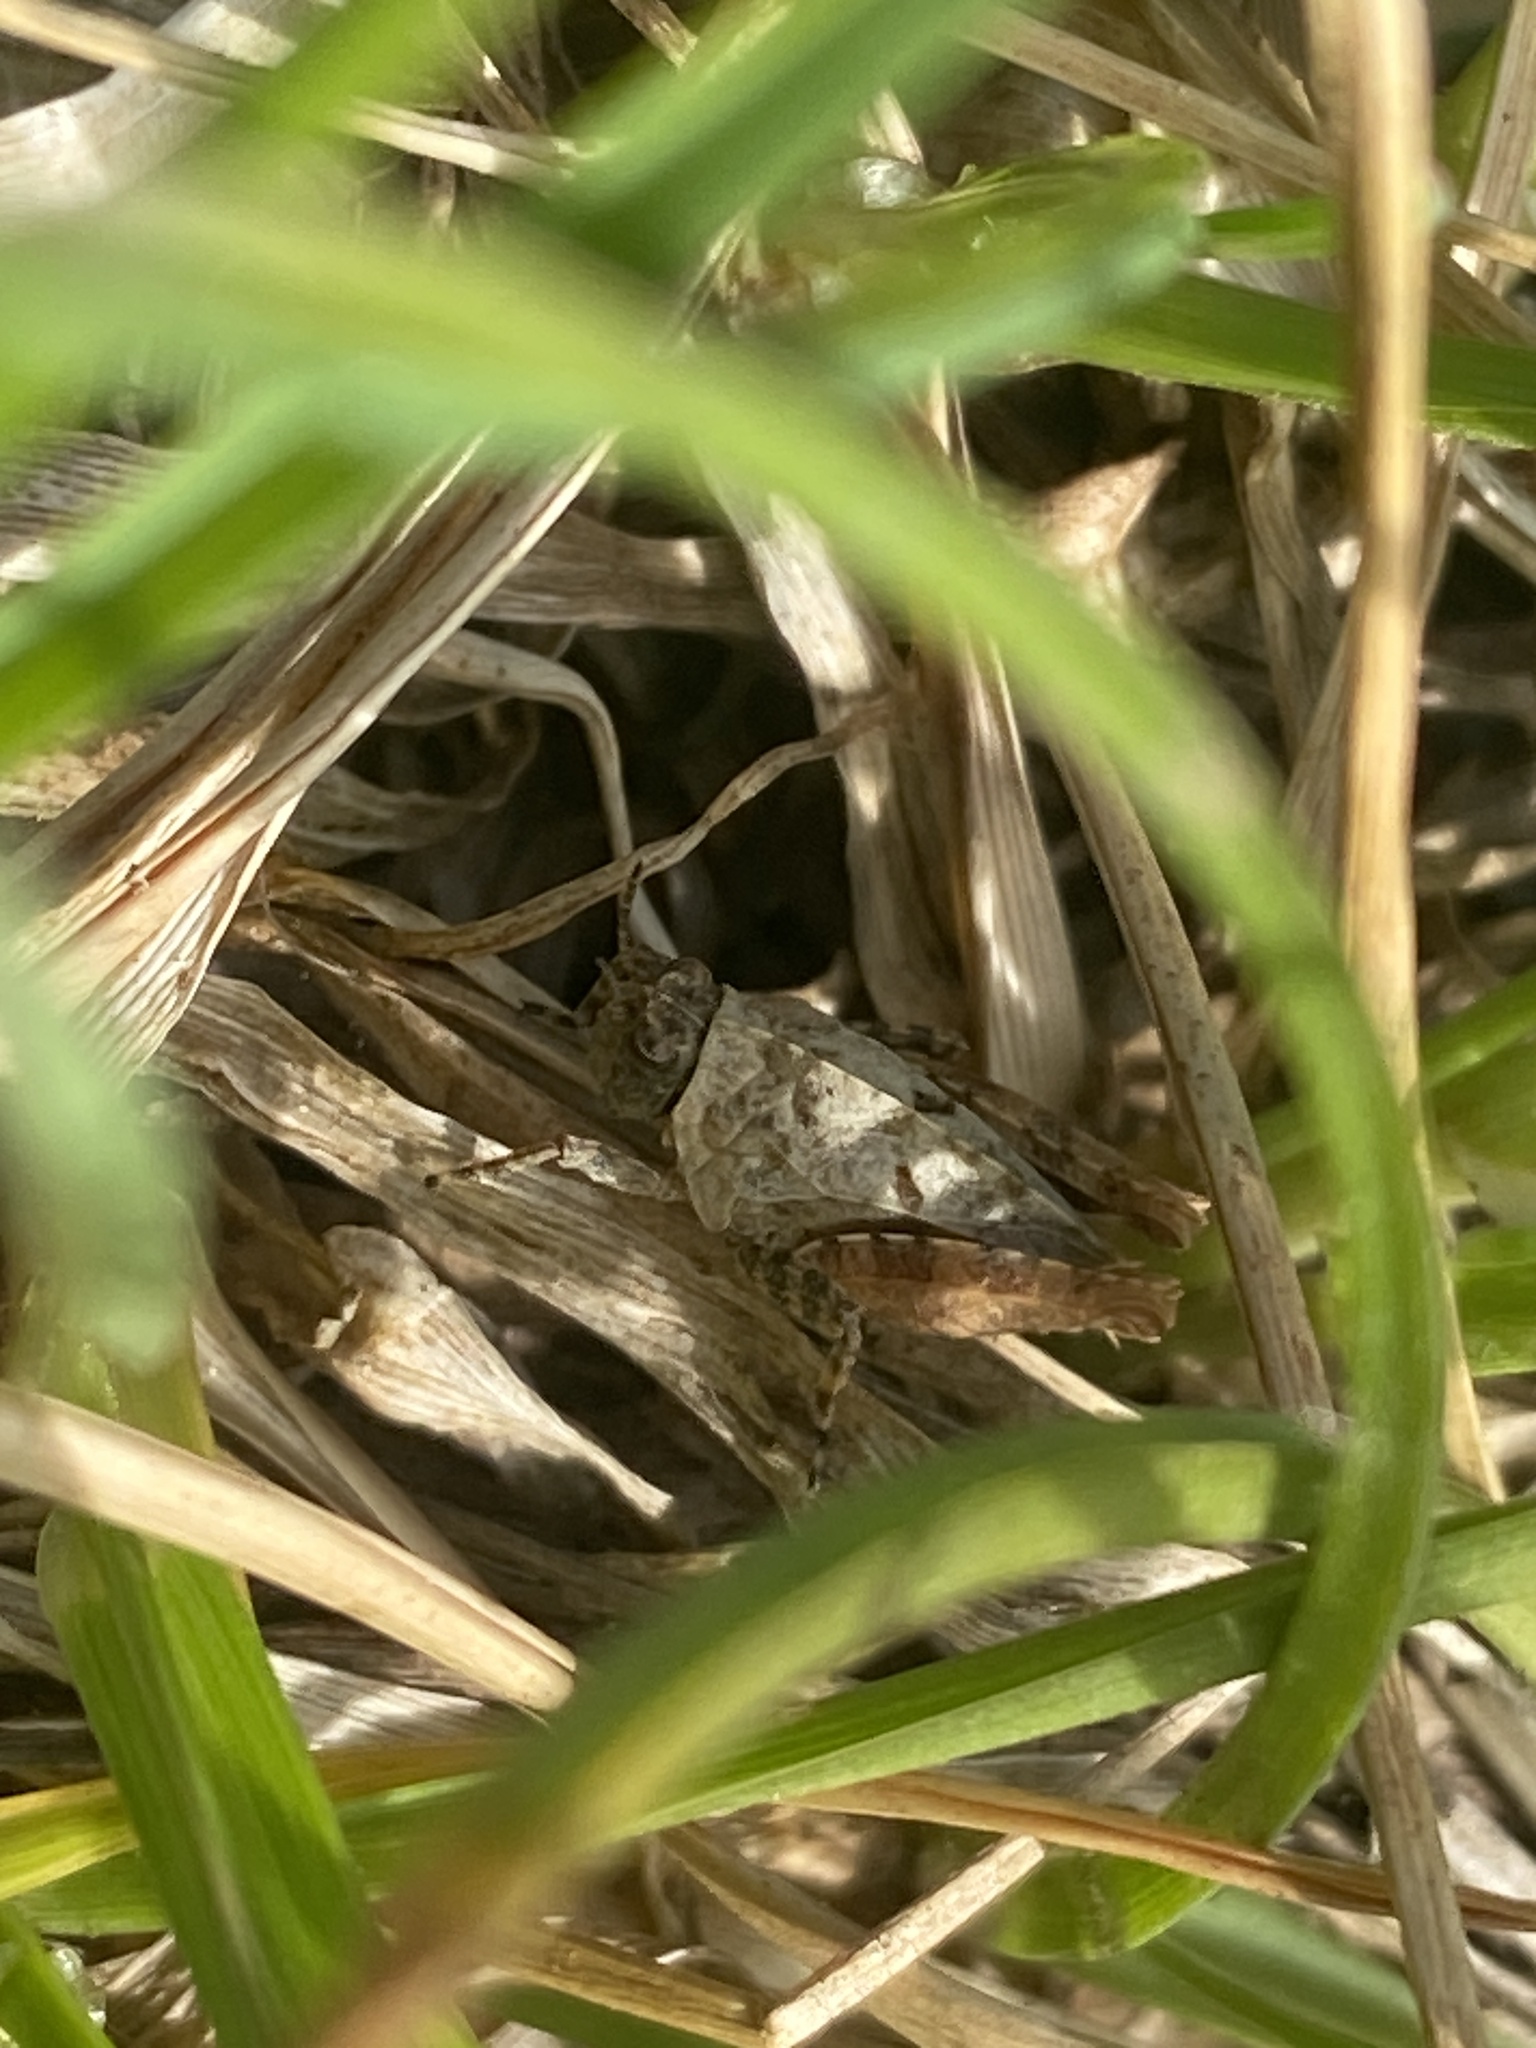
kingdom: Animalia
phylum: Arthropoda
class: Insecta
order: Orthoptera
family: Tetrigidae
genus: Tetrix
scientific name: Tetrix tenuicornis
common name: Long-horned groundhopper
